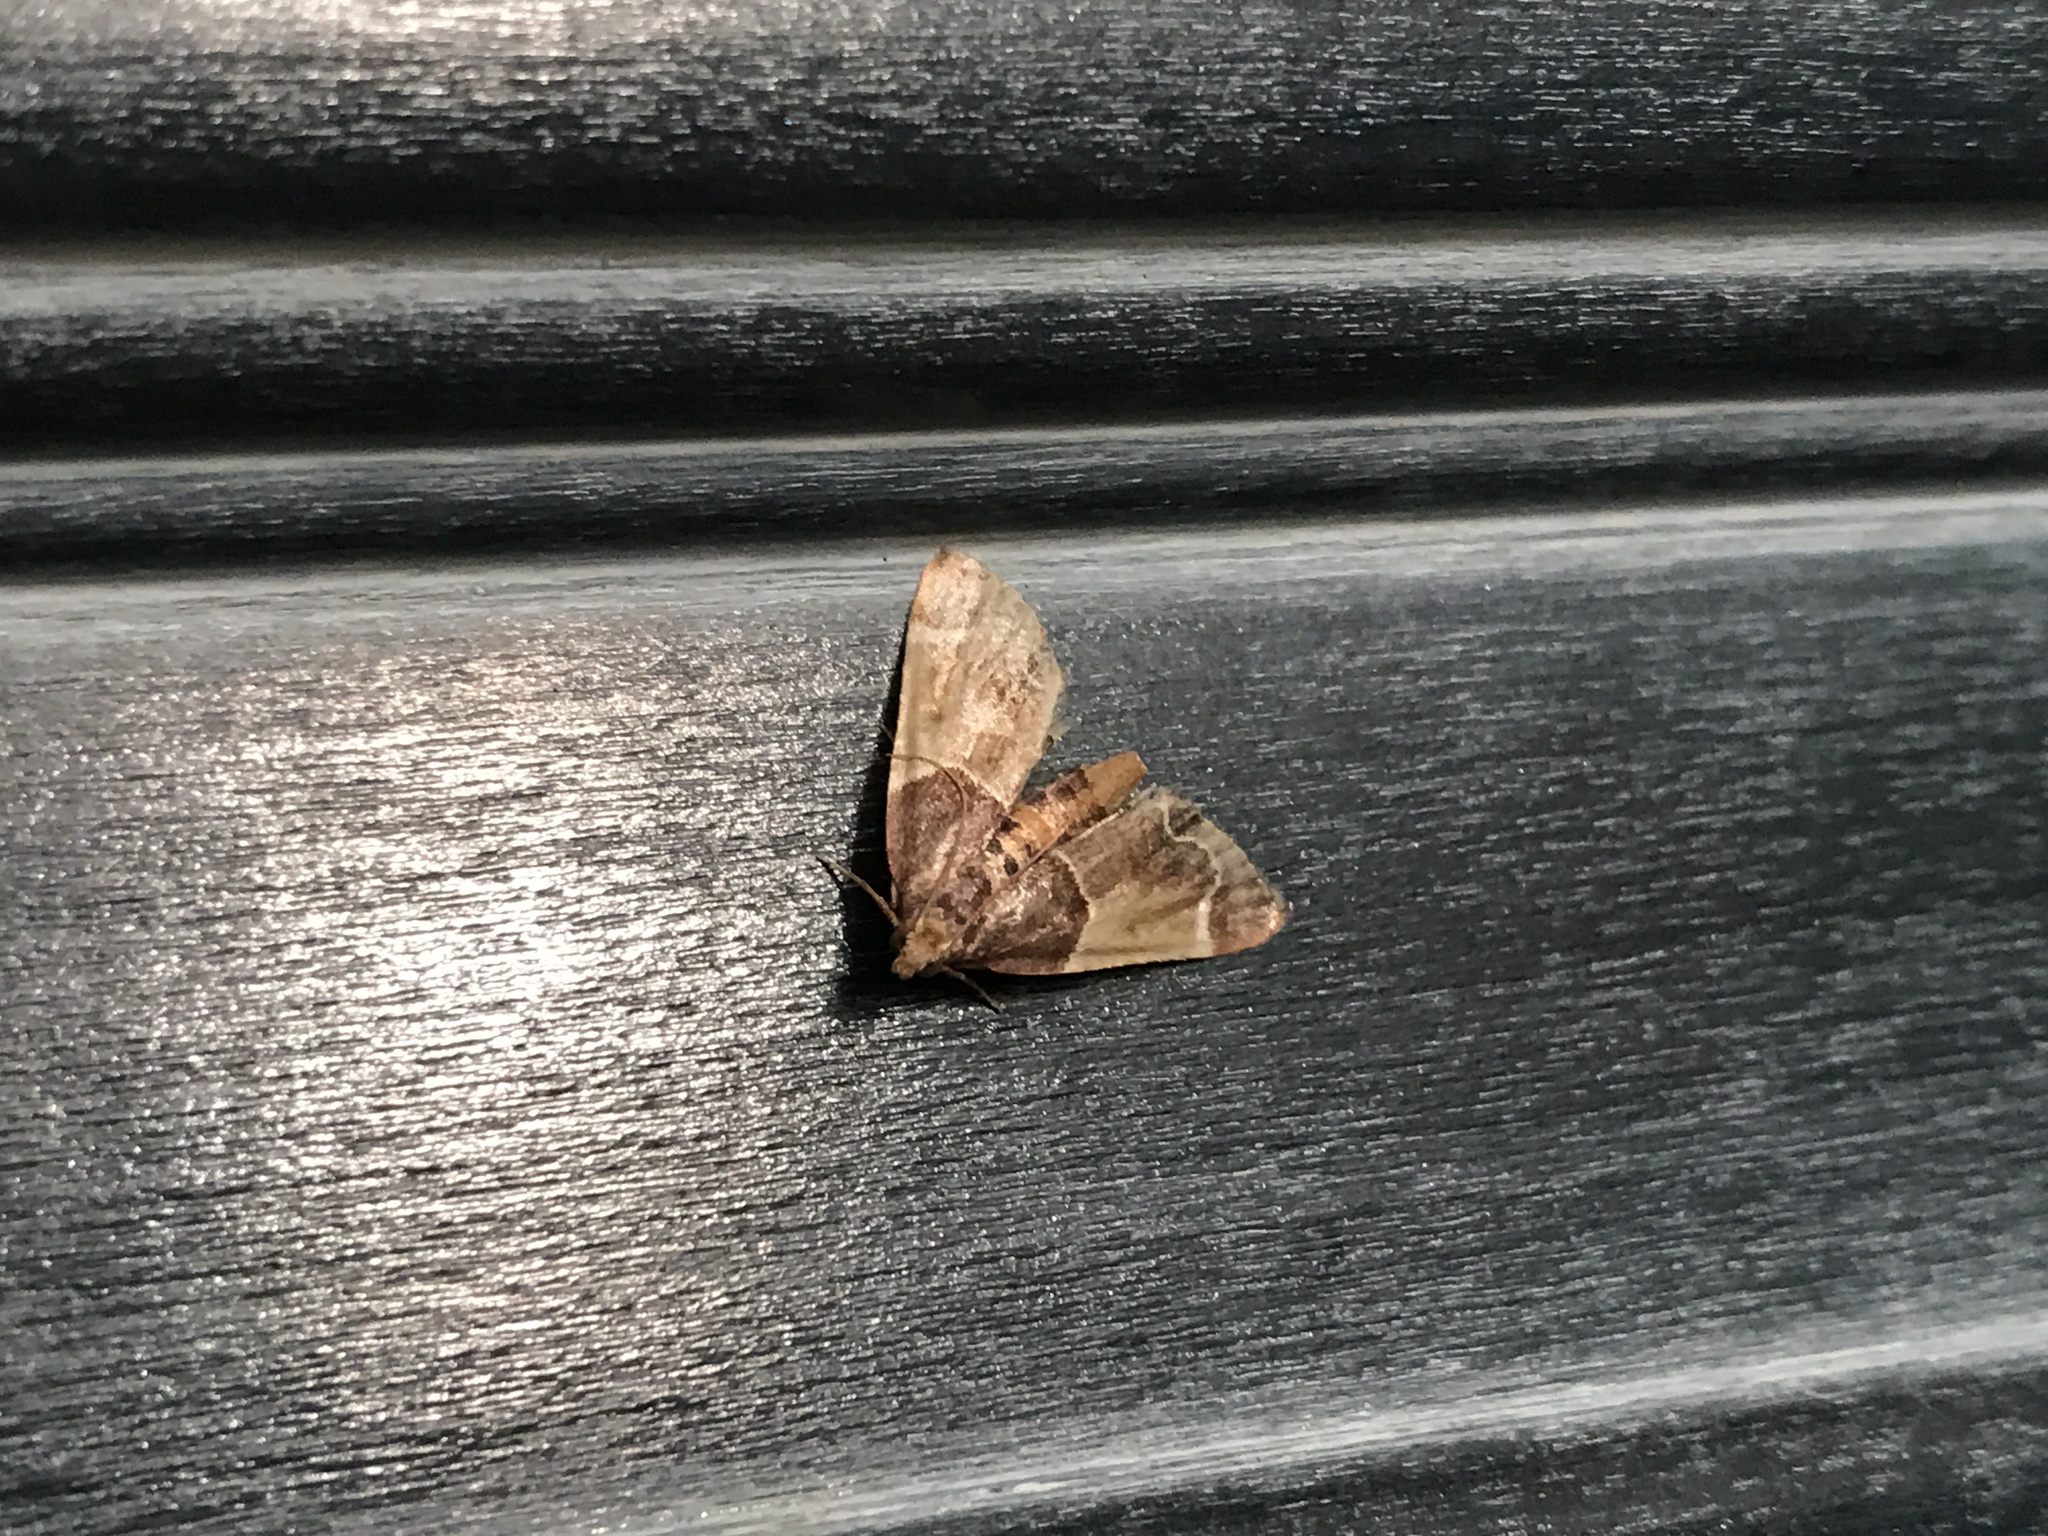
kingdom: Animalia
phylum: Arthropoda
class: Insecta
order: Lepidoptera
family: Pyralidae
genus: Pyralis
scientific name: Pyralis farinalis
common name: Meal moth
